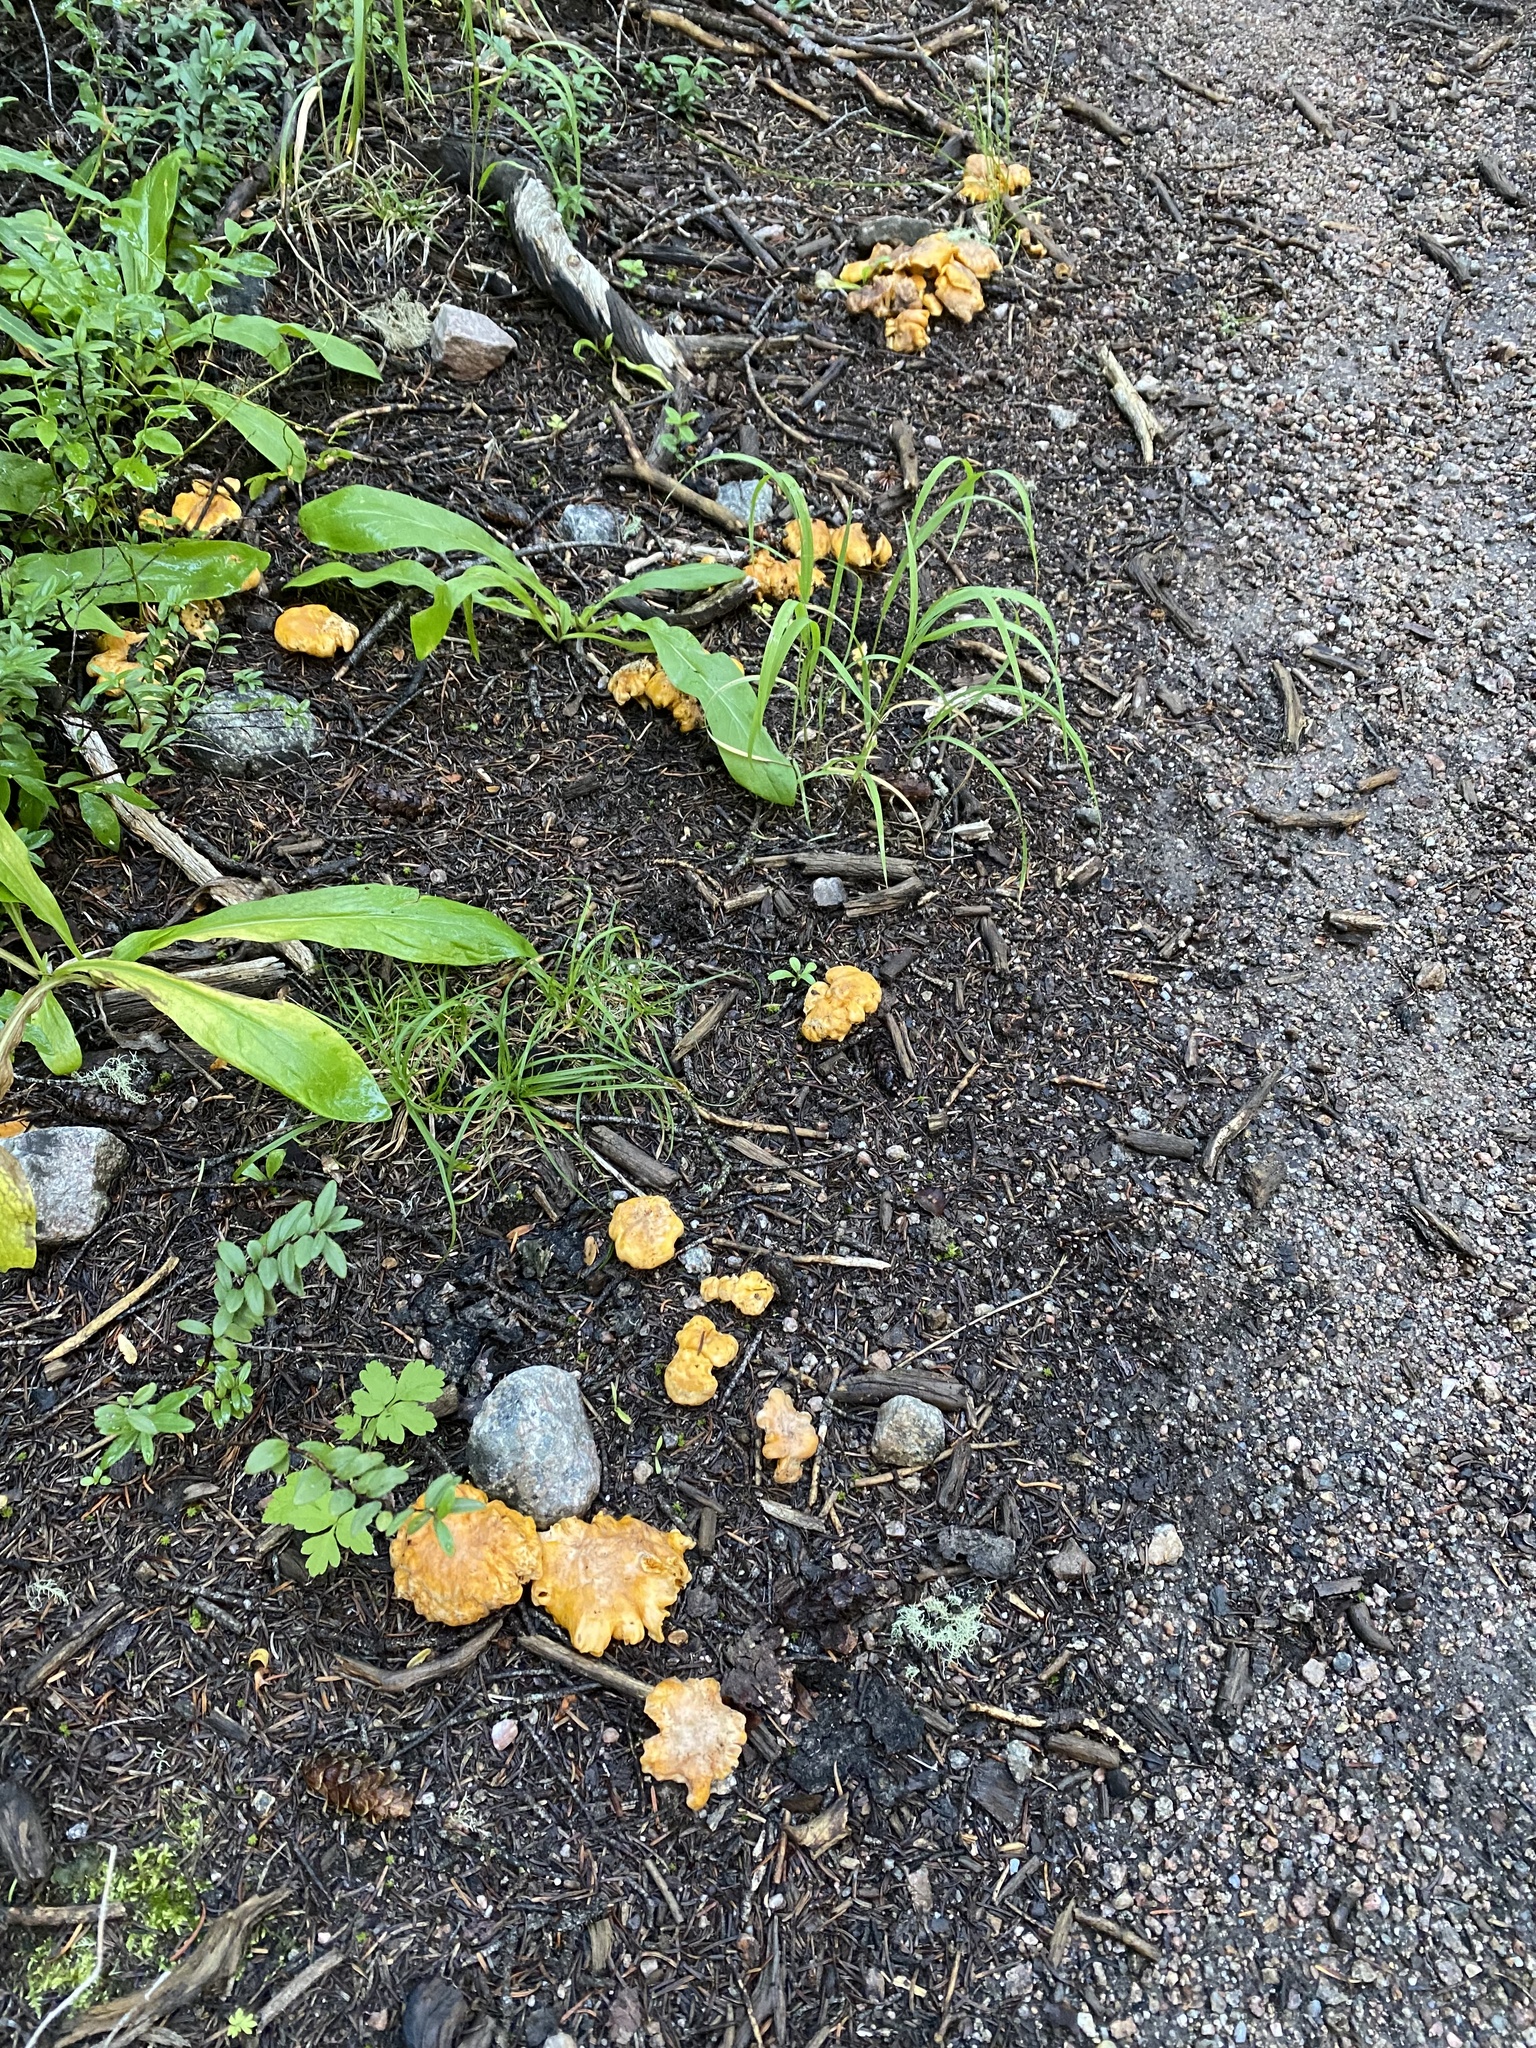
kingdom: Fungi
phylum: Basidiomycota
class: Agaricomycetes
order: Cantharellales
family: Hydnaceae
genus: Cantharellus
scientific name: Cantharellus roseocanus
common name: Rainbow chanterelle
